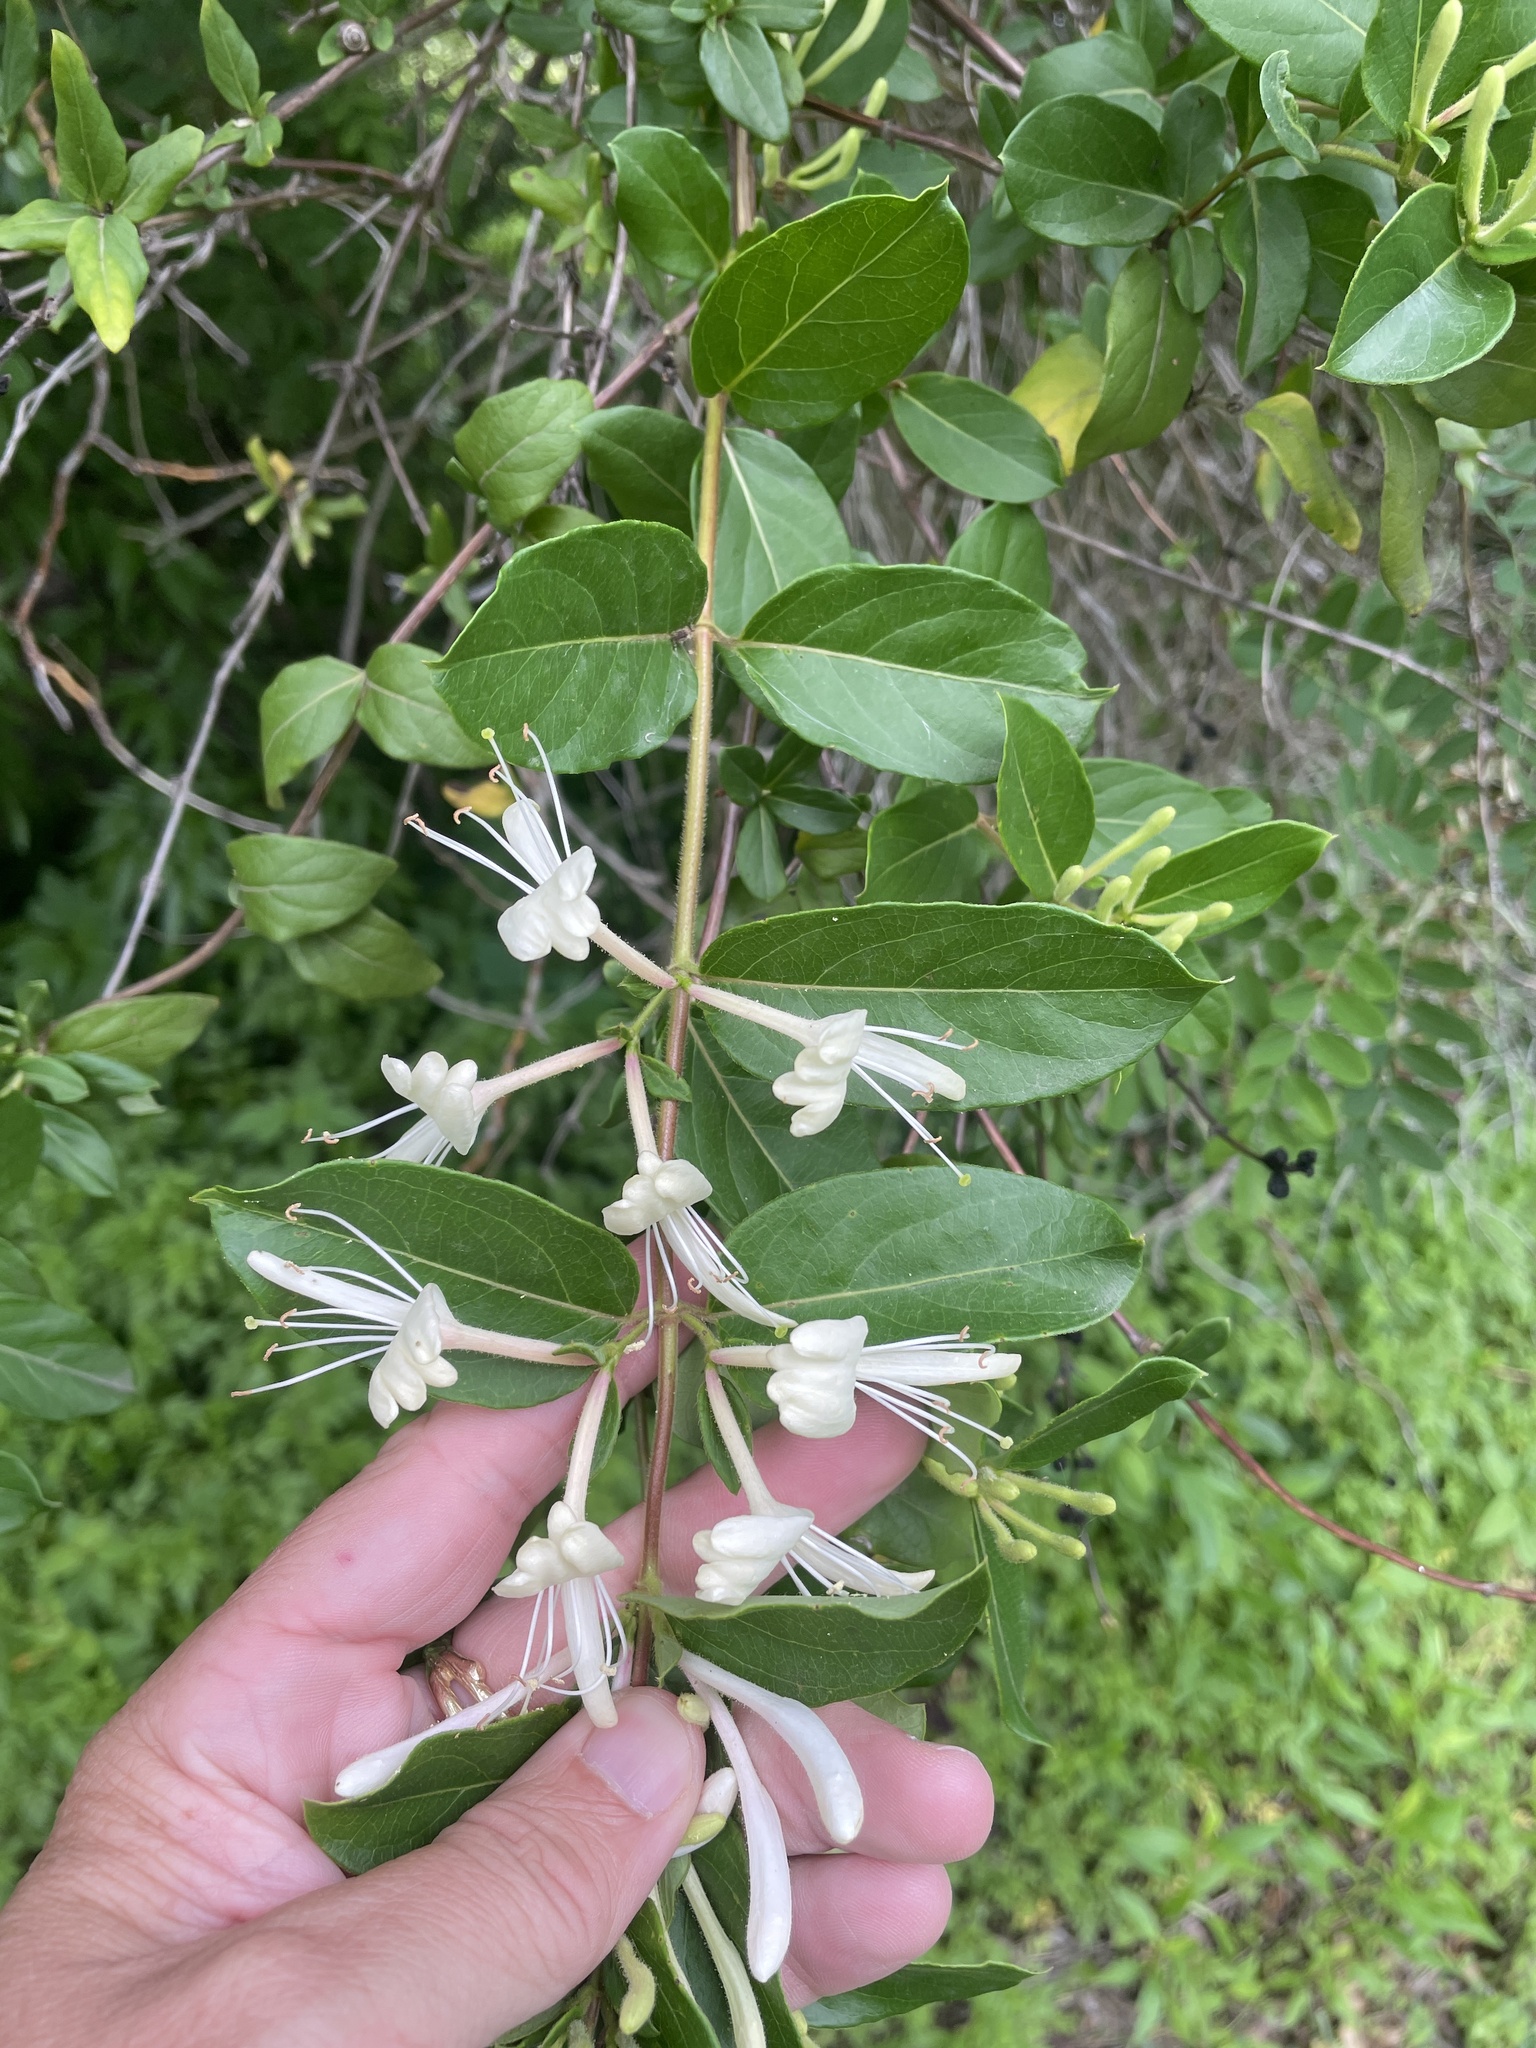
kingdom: Plantae
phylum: Tracheophyta
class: Magnoliopsida
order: Dipsacales
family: Caprifoliaceae
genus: Lonicera
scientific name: Lonicera japonica
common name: Japanese honeysuckle
